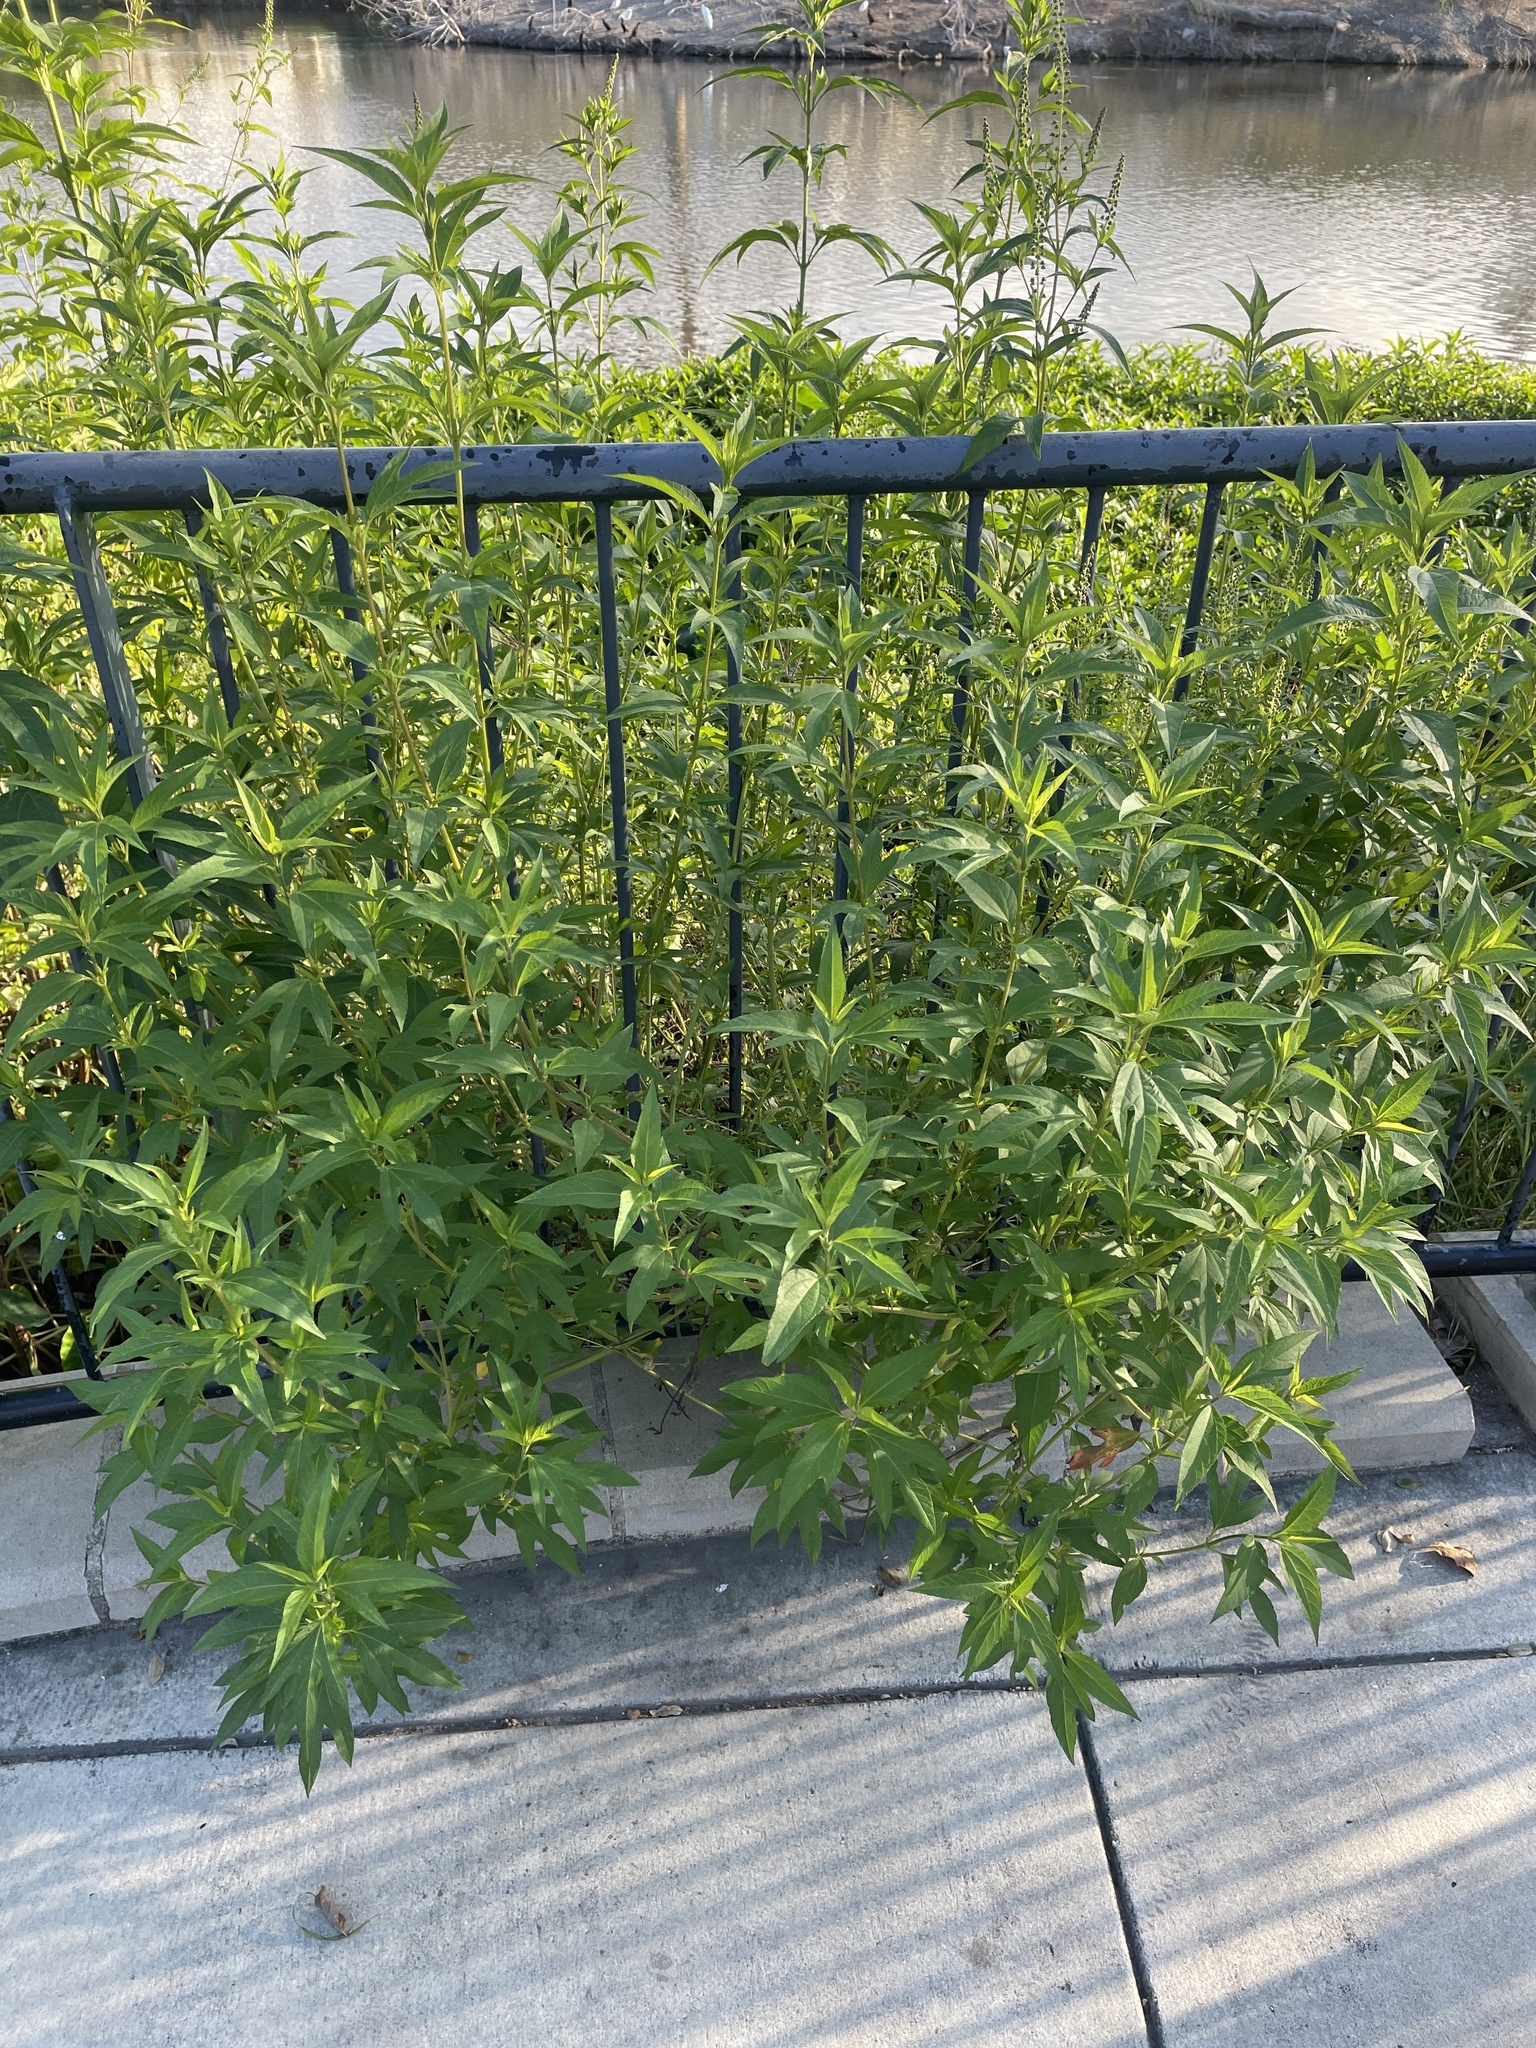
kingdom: Plantae
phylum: Tracheophyta
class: Magnoliopsida
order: Asterales
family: Asteraceae
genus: Ambrosia
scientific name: Ambrosia trifida
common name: Giant ragweed
